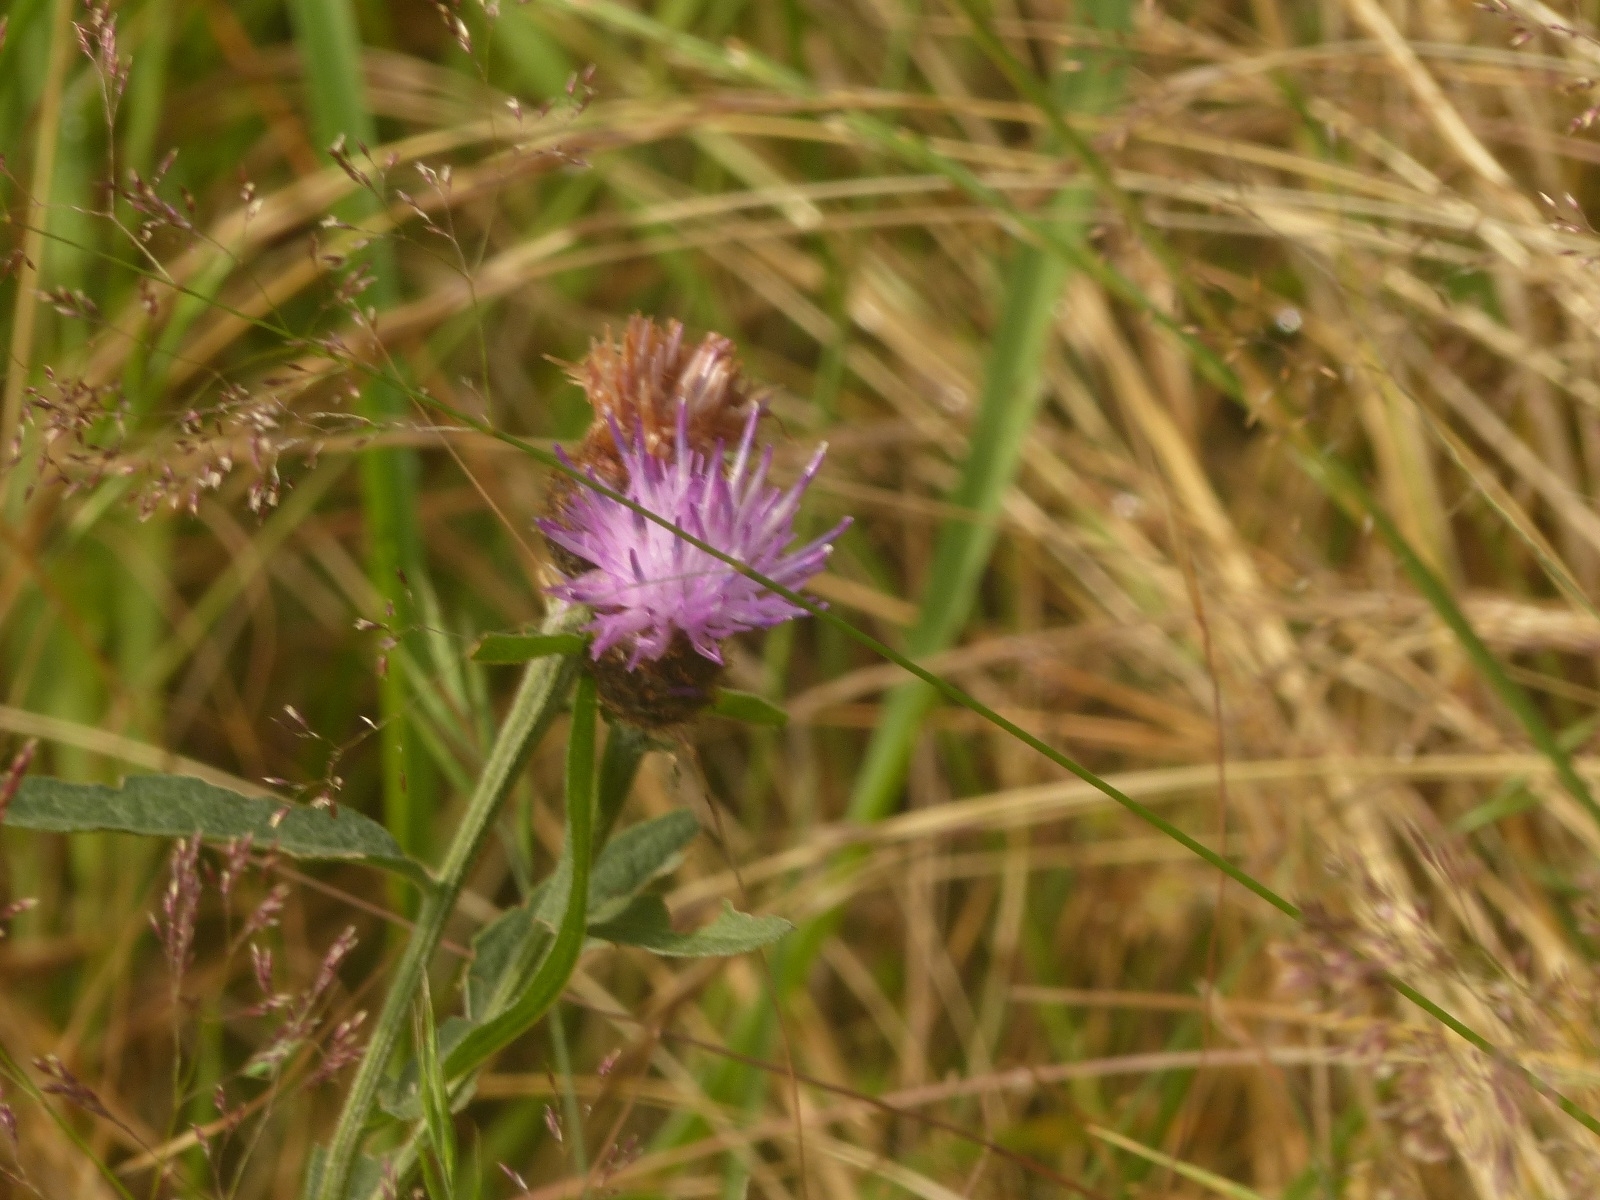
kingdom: Plantae
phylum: Tracheophyta
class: Magnoliopsida
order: Asterales
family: Asteraceae
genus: Centaurea
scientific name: Centaurea nigra
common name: Lesser knapweed
